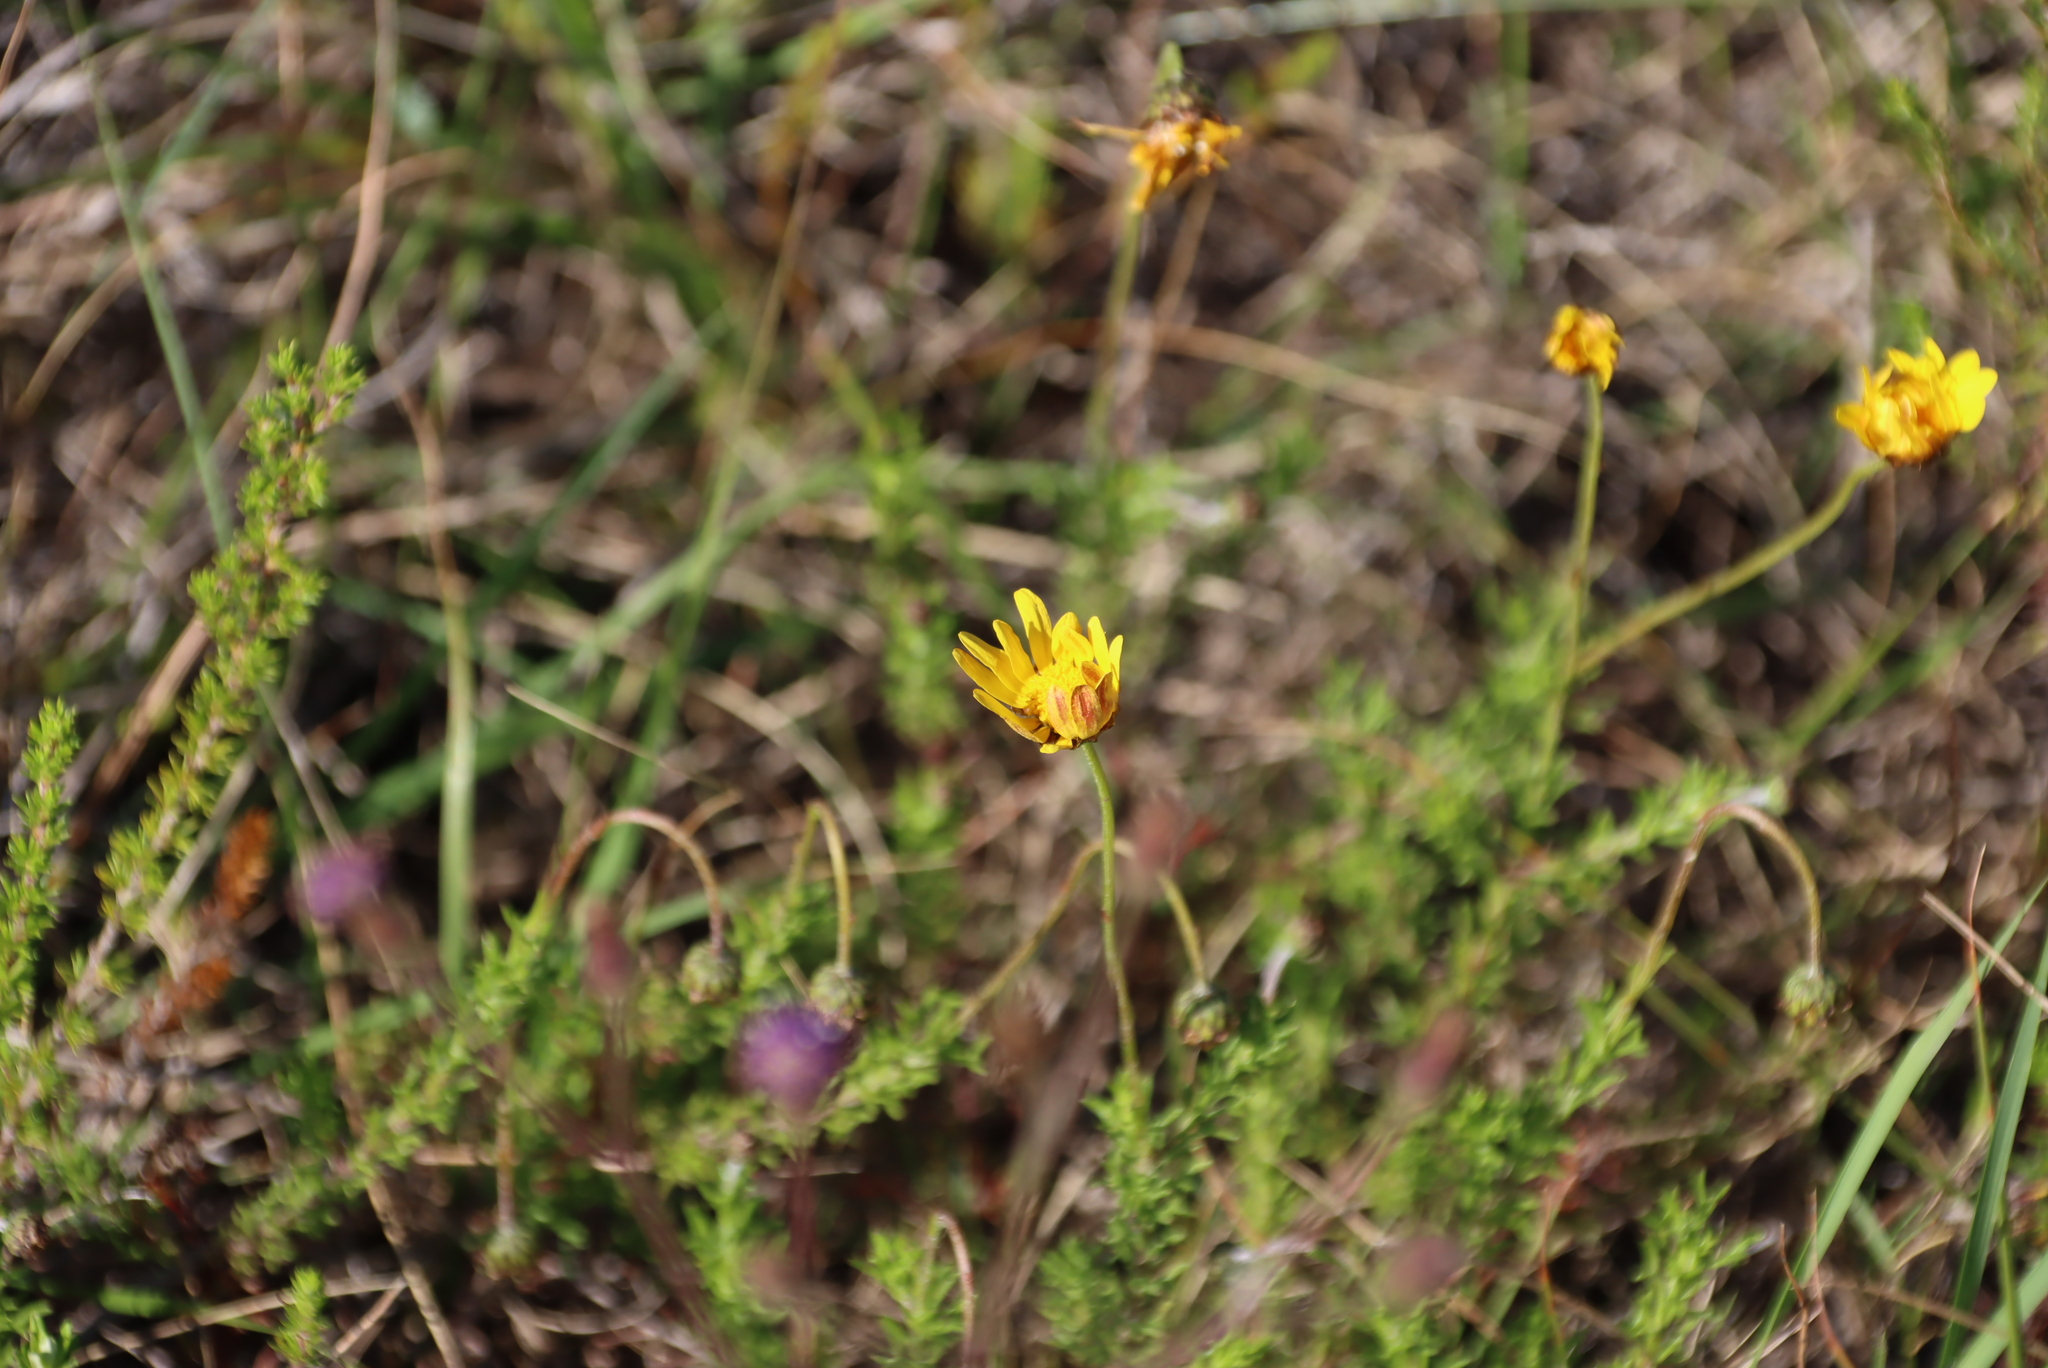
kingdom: Plantae
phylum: Tracheophyta
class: Magnoliopsida
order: Asterales
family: Asteraceae
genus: Ursinia
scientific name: Ursinia trifida
